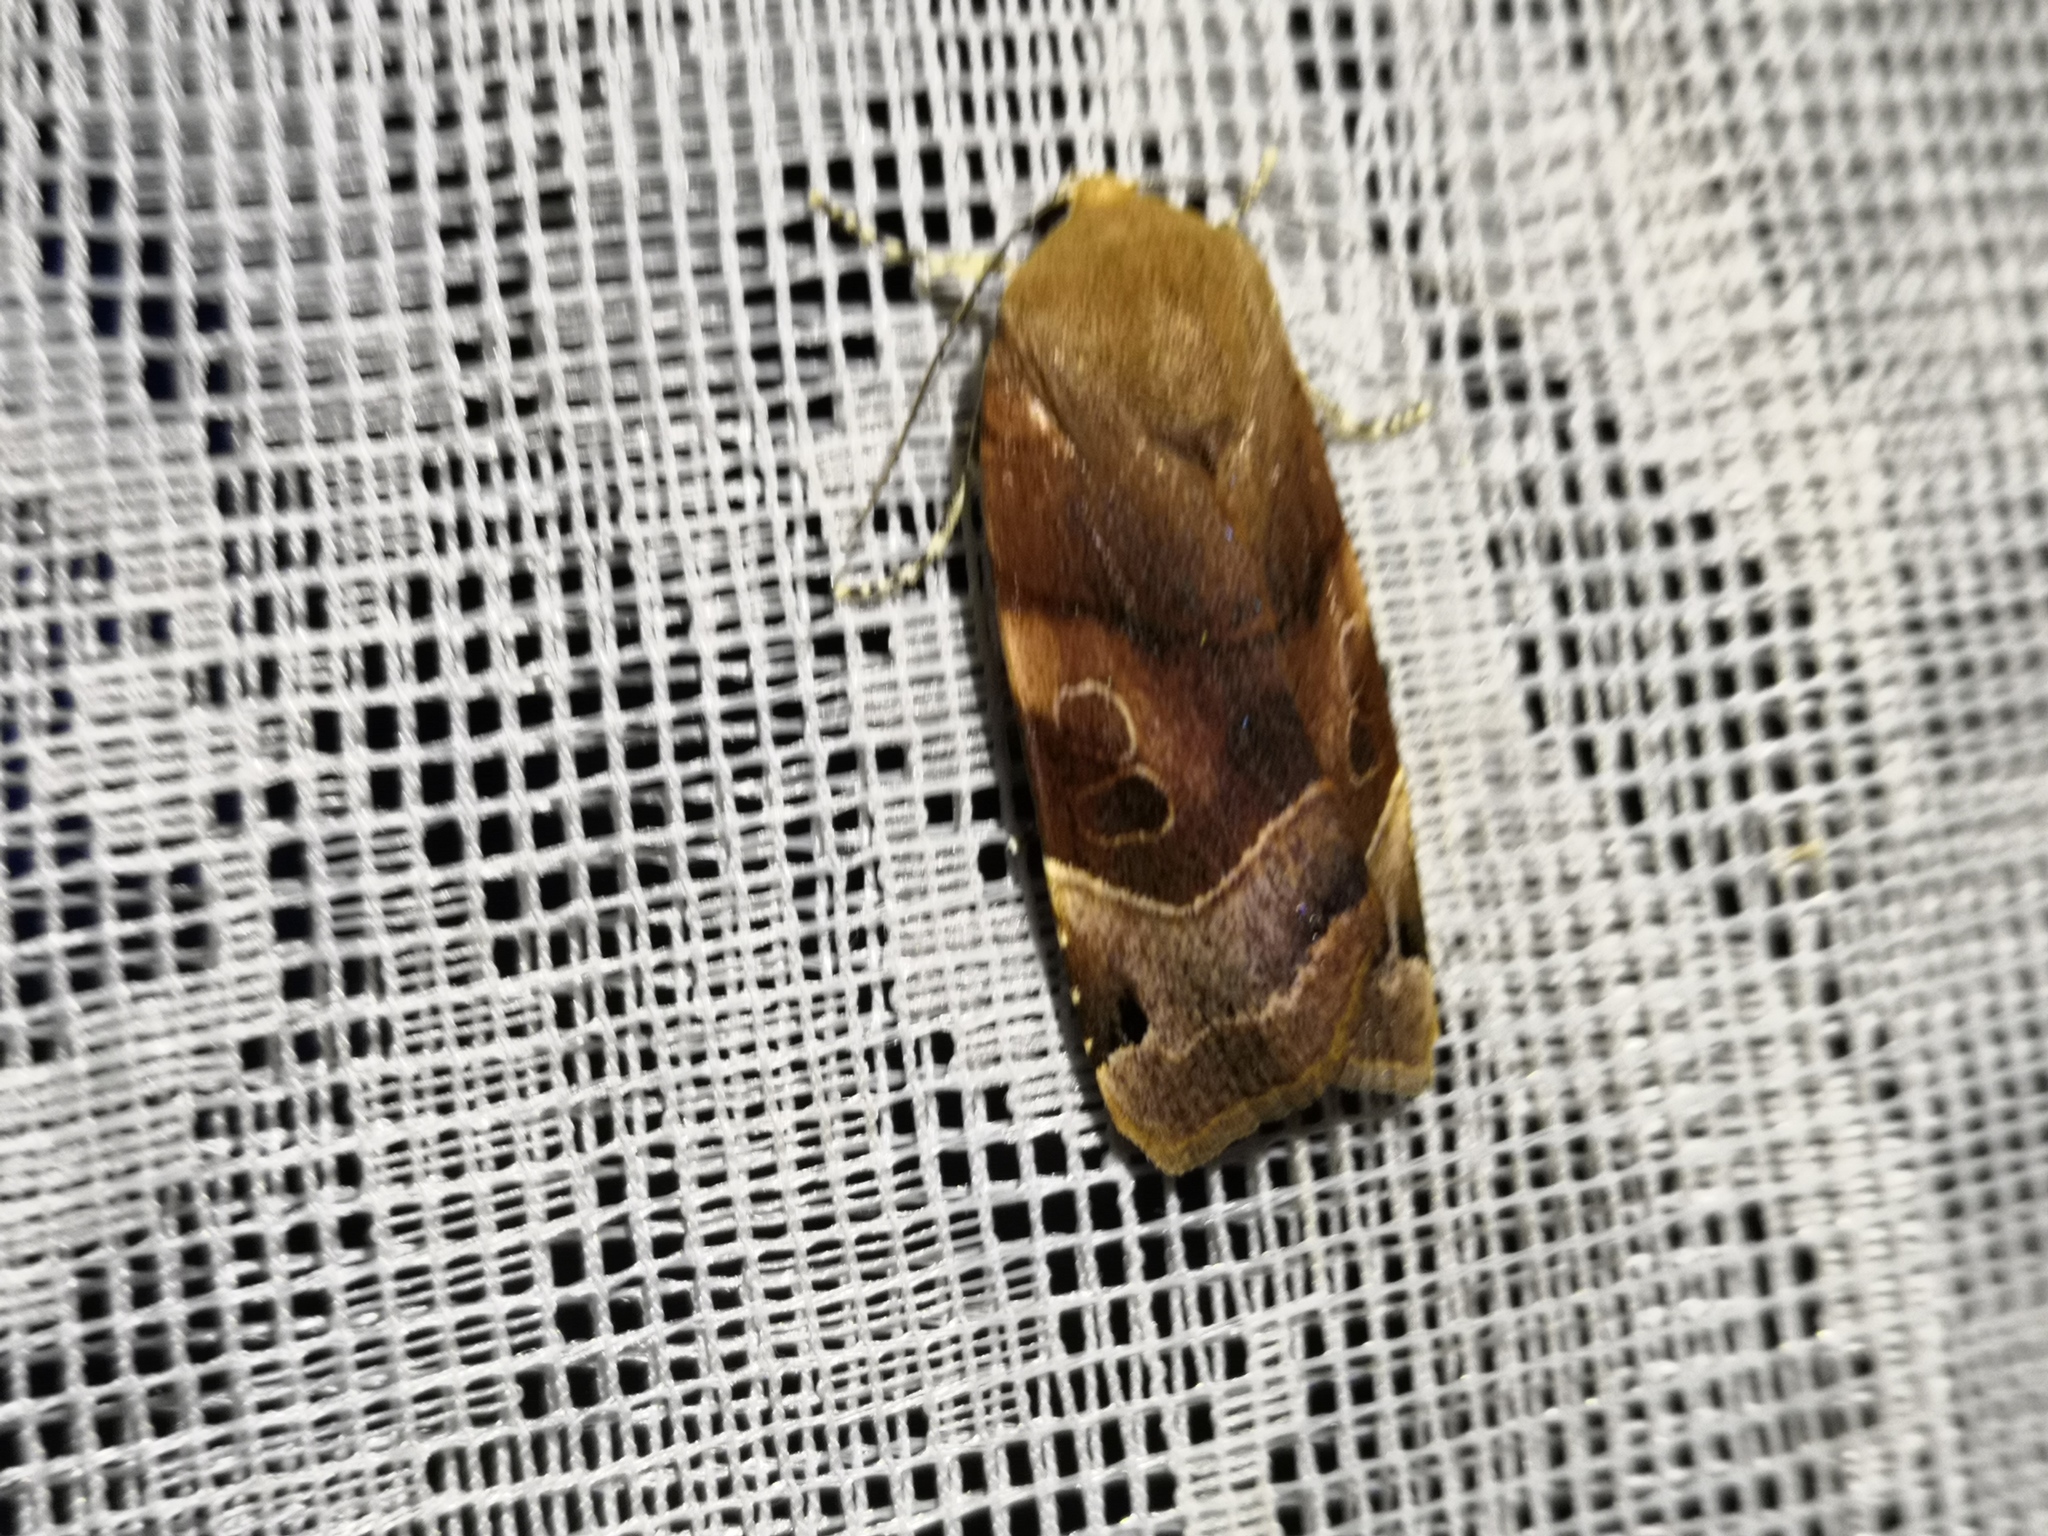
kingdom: Animalia
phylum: Arthropoda
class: Insecta
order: Lepidoptera
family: Noctuidae
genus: Noctua
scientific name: Noctua fimbriata
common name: Broad-bordered yellow underwing
